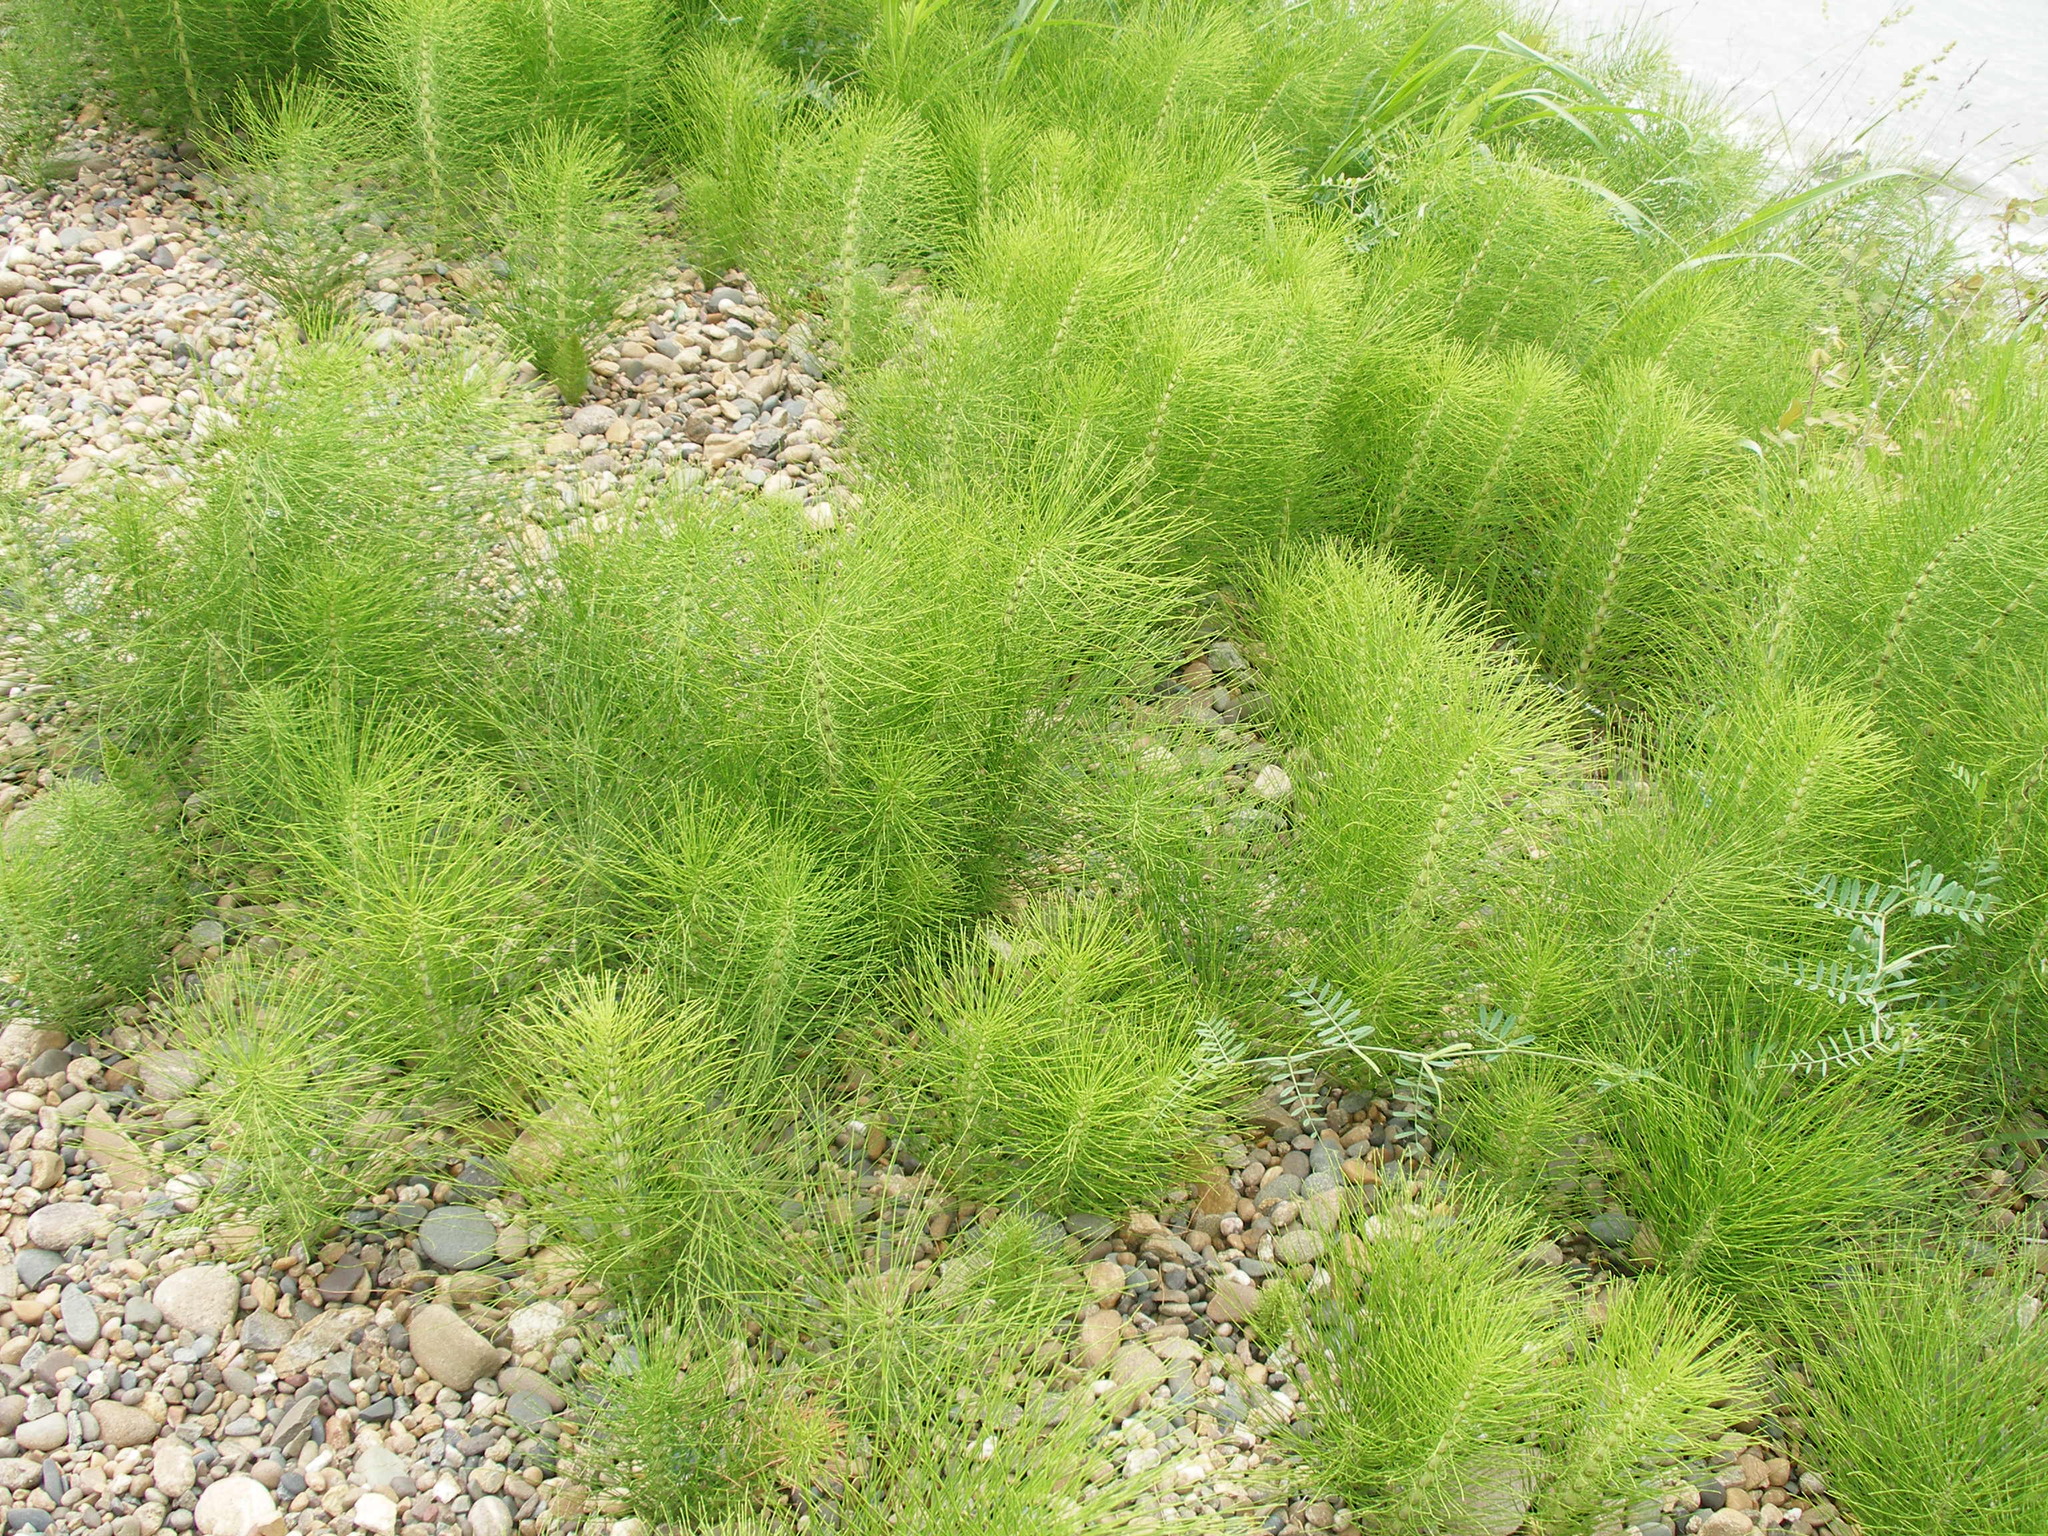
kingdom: Plantae
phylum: Tracheophyta
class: Polypodiopsida
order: Equisetales
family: Equisetaceae
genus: Equisetum
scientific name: Equisetum telmateia
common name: Great horsetail
